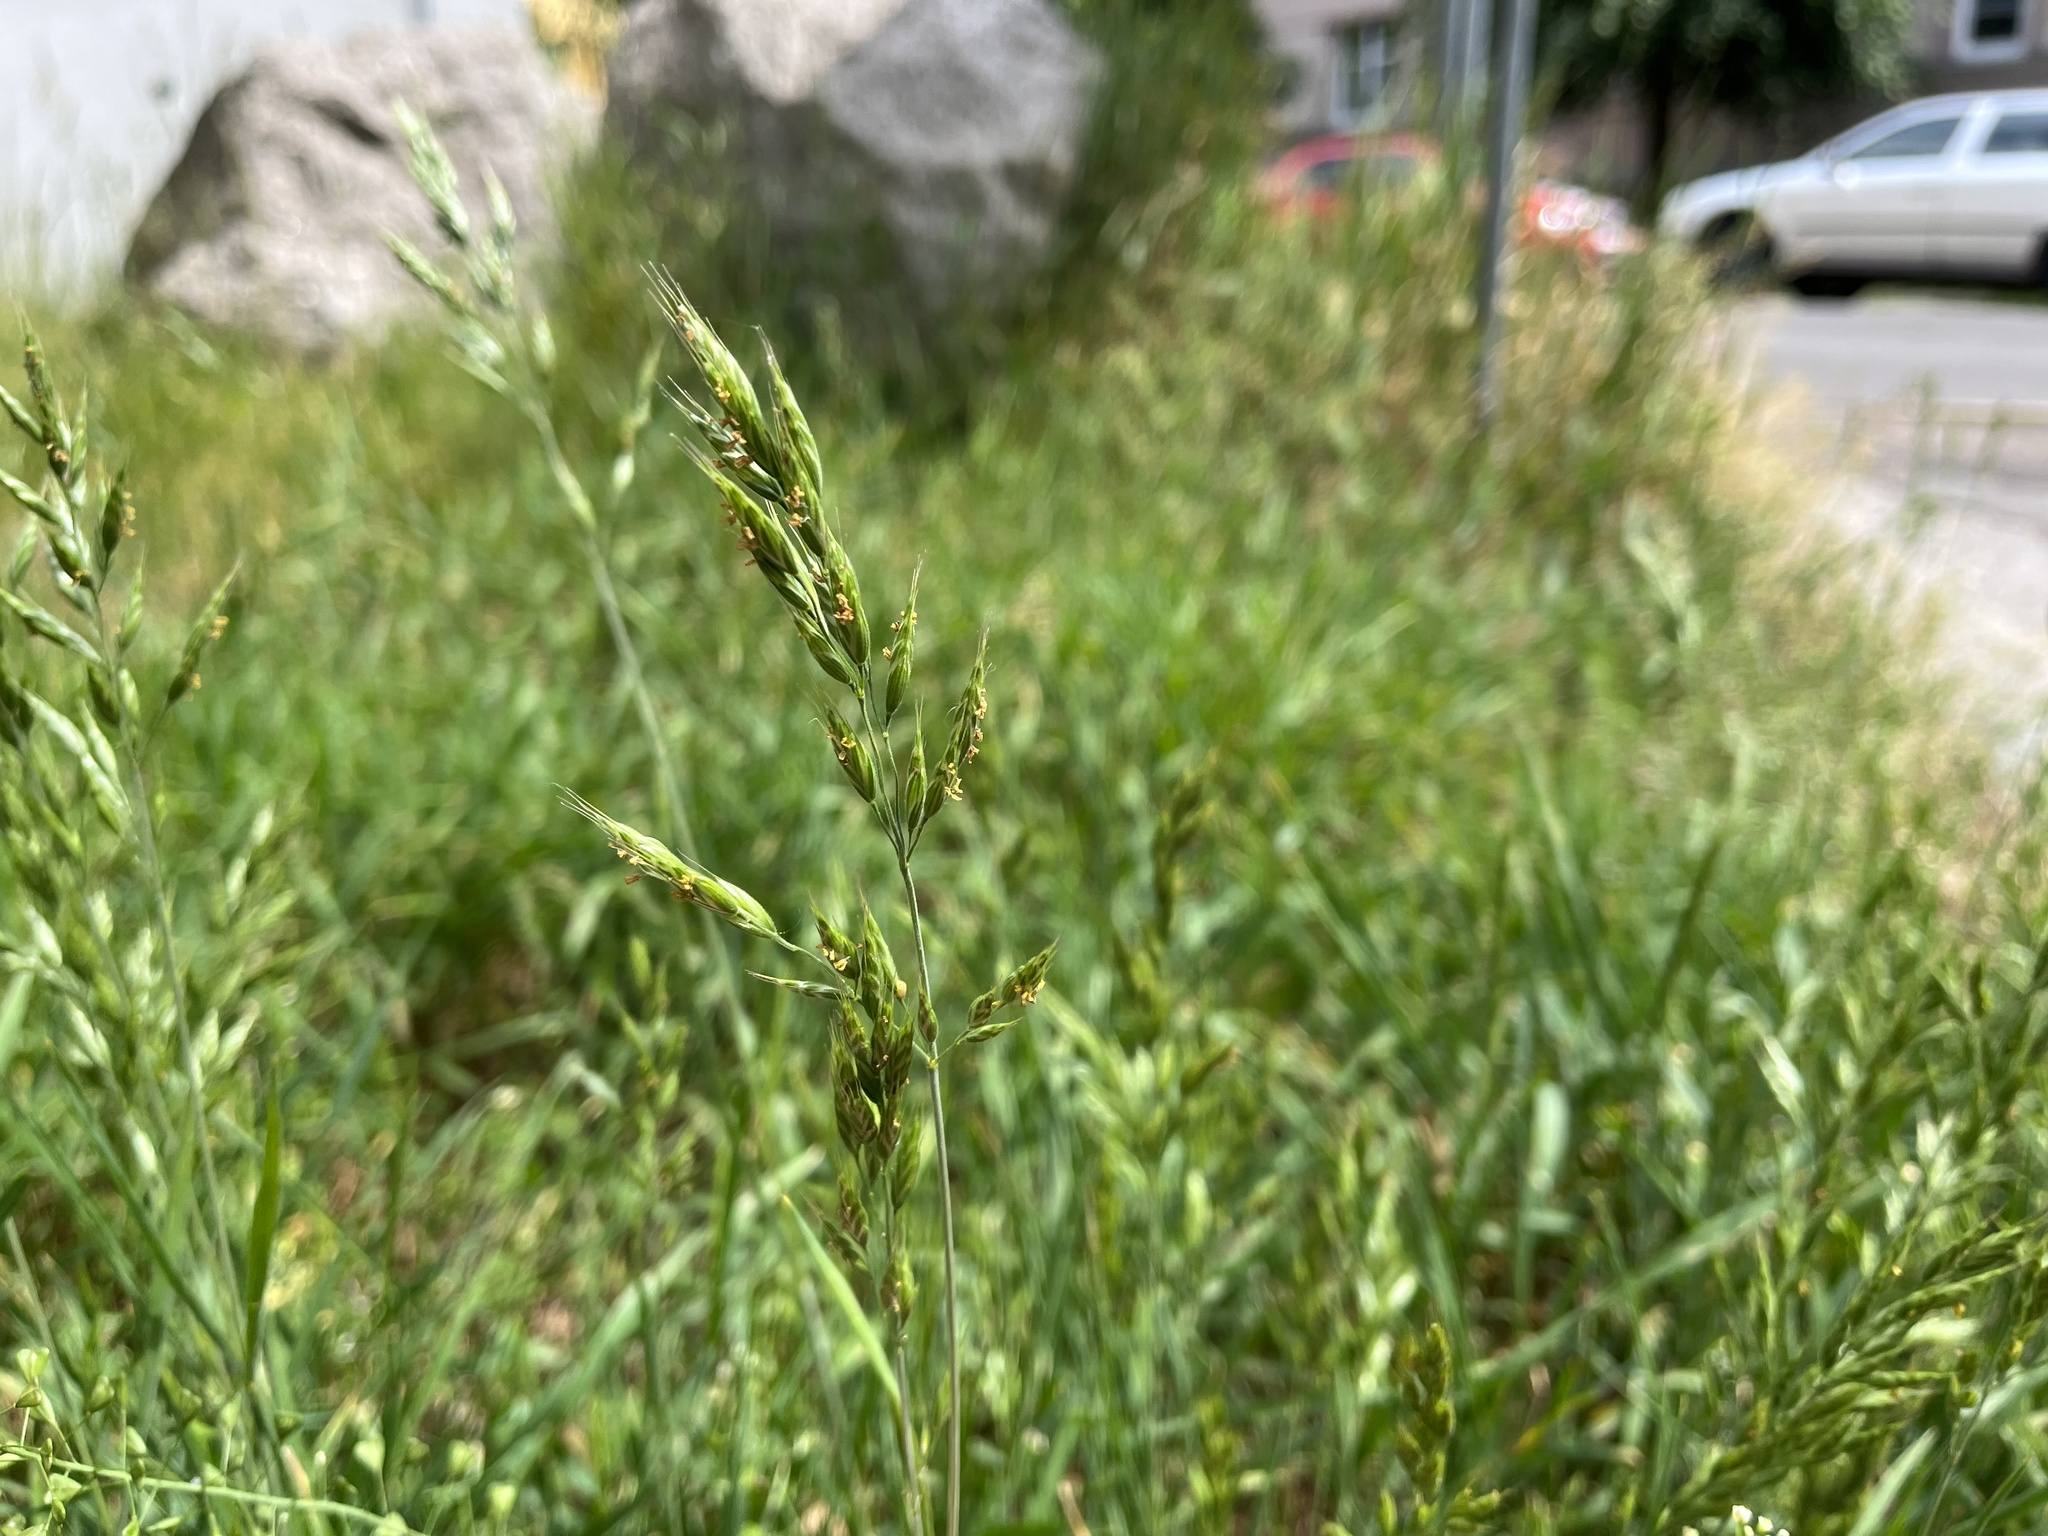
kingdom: Plantae
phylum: Tracheophyta
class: Liliopsida
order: Poales
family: Poaceae
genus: Bromus
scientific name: Bromus hordeaceus
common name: Soft brome
